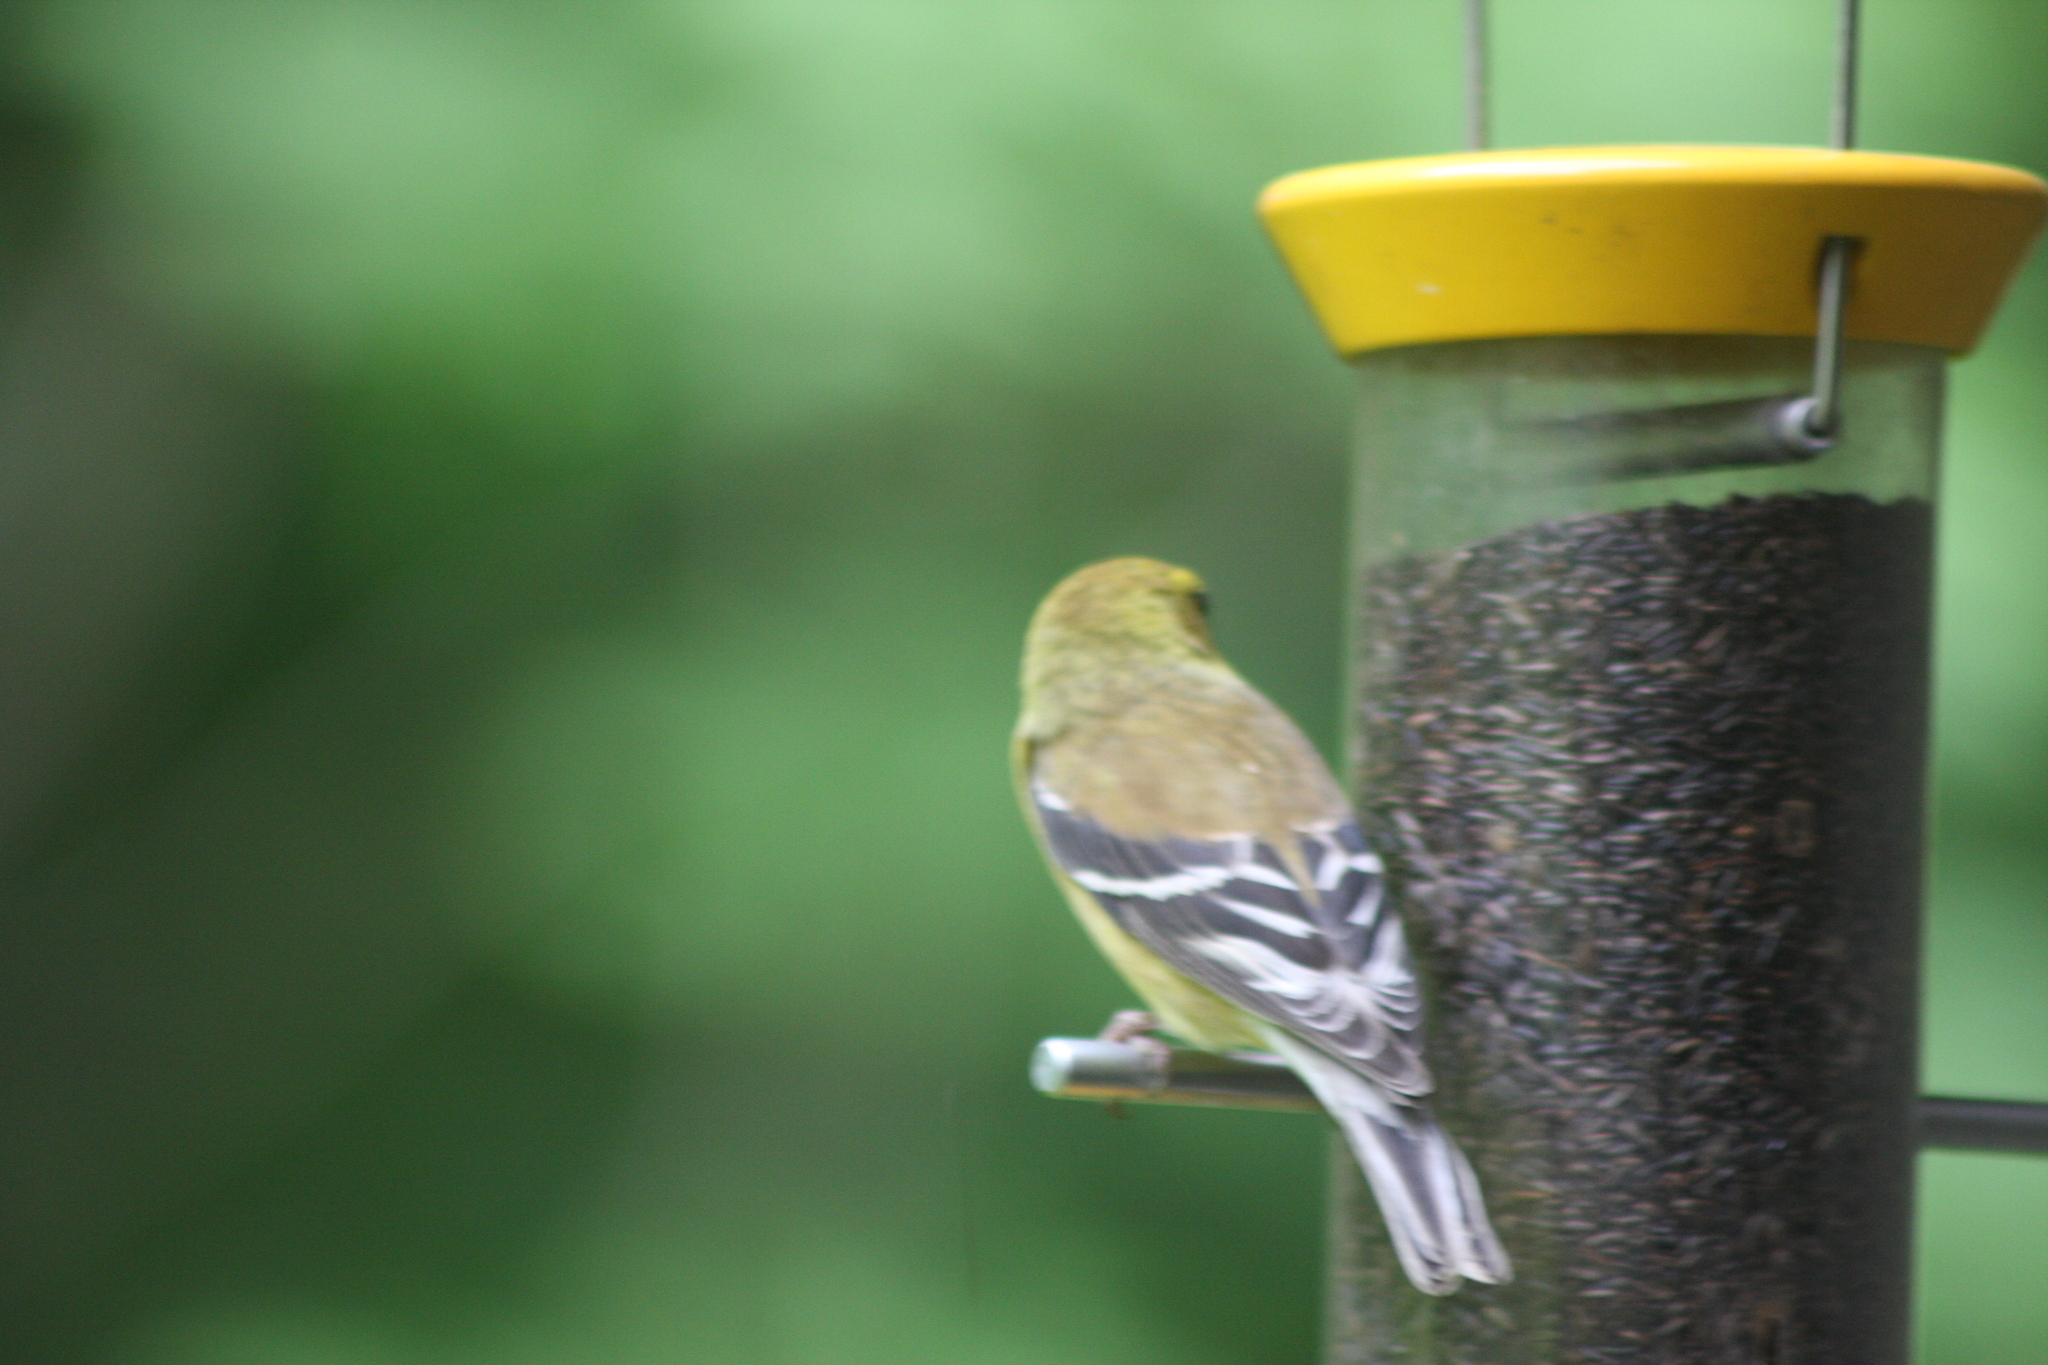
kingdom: Animalia
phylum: Chordata
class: Aves
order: Passeriformes
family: Fringillidae
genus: Spinus
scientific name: Spinus tristis
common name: American goldfinch
